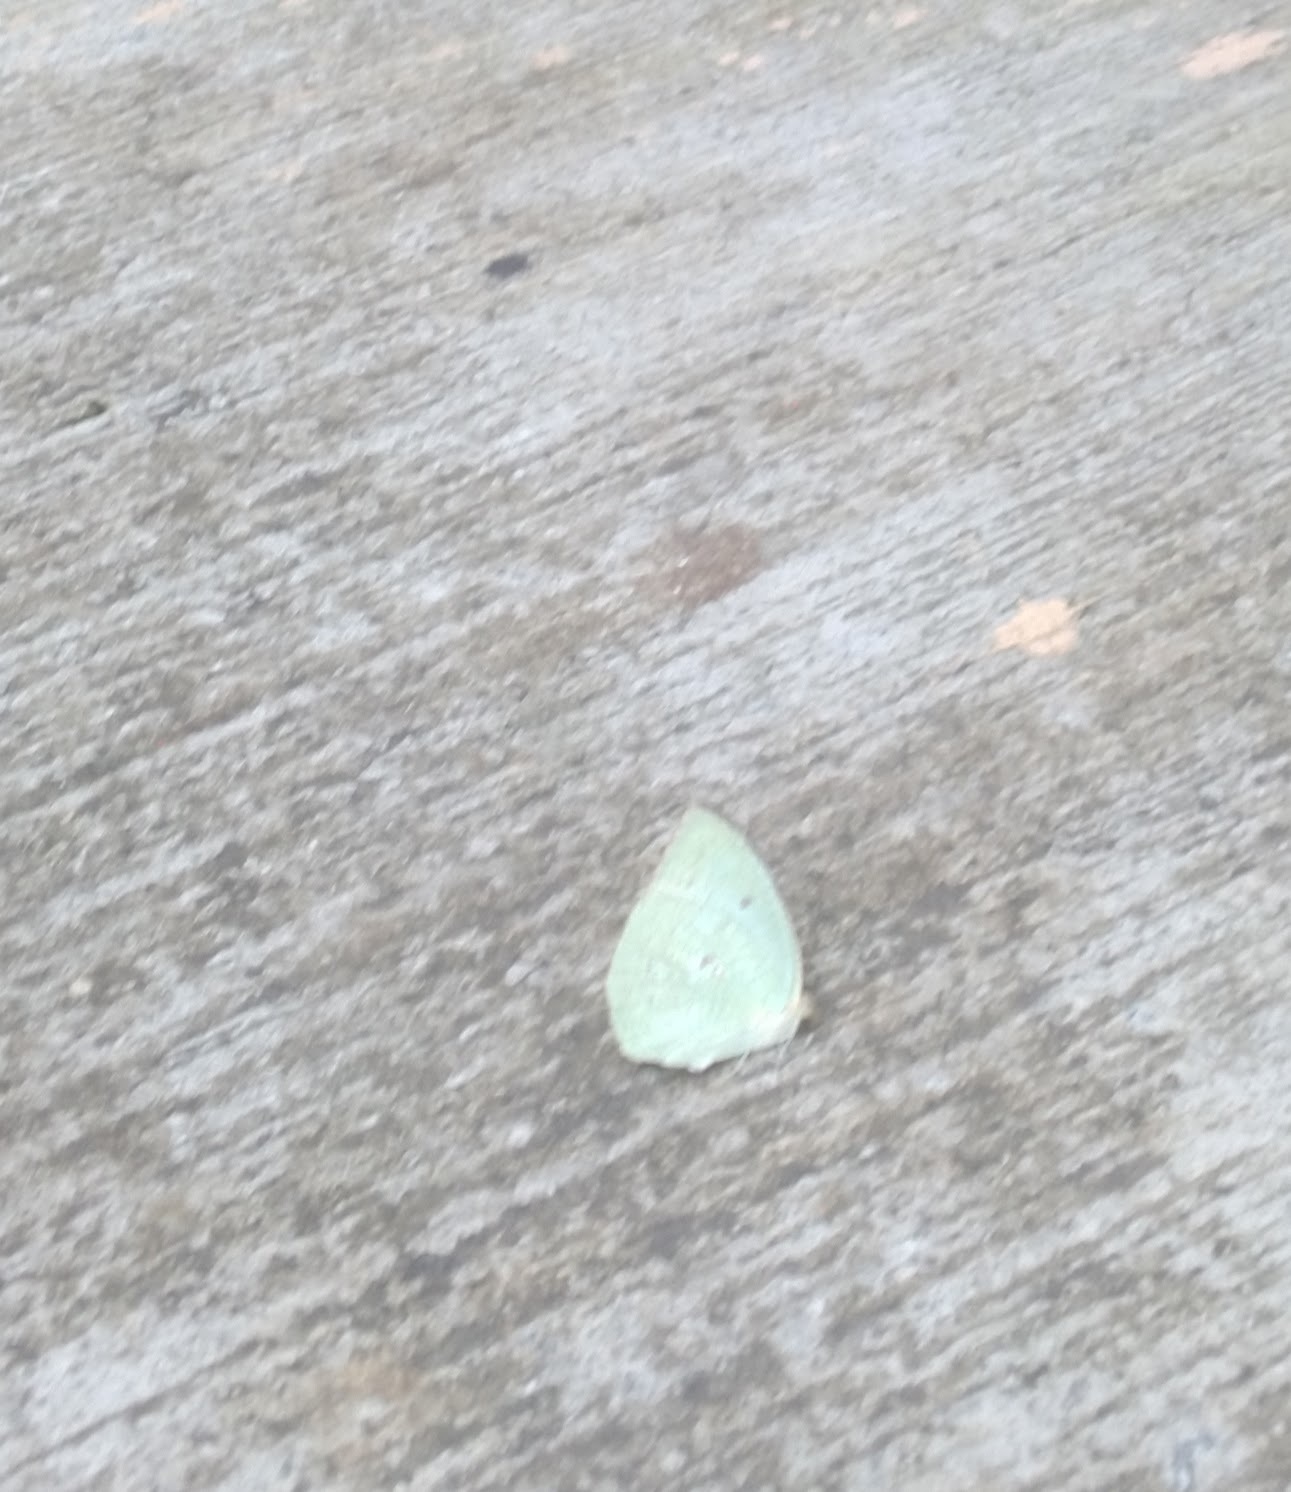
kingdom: Animalia
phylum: Arthropoda
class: Insecta
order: Lepidoptera
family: Pieridae
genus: Catopsilia
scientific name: Catopsilia pyranthe
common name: Mottled emigrant
